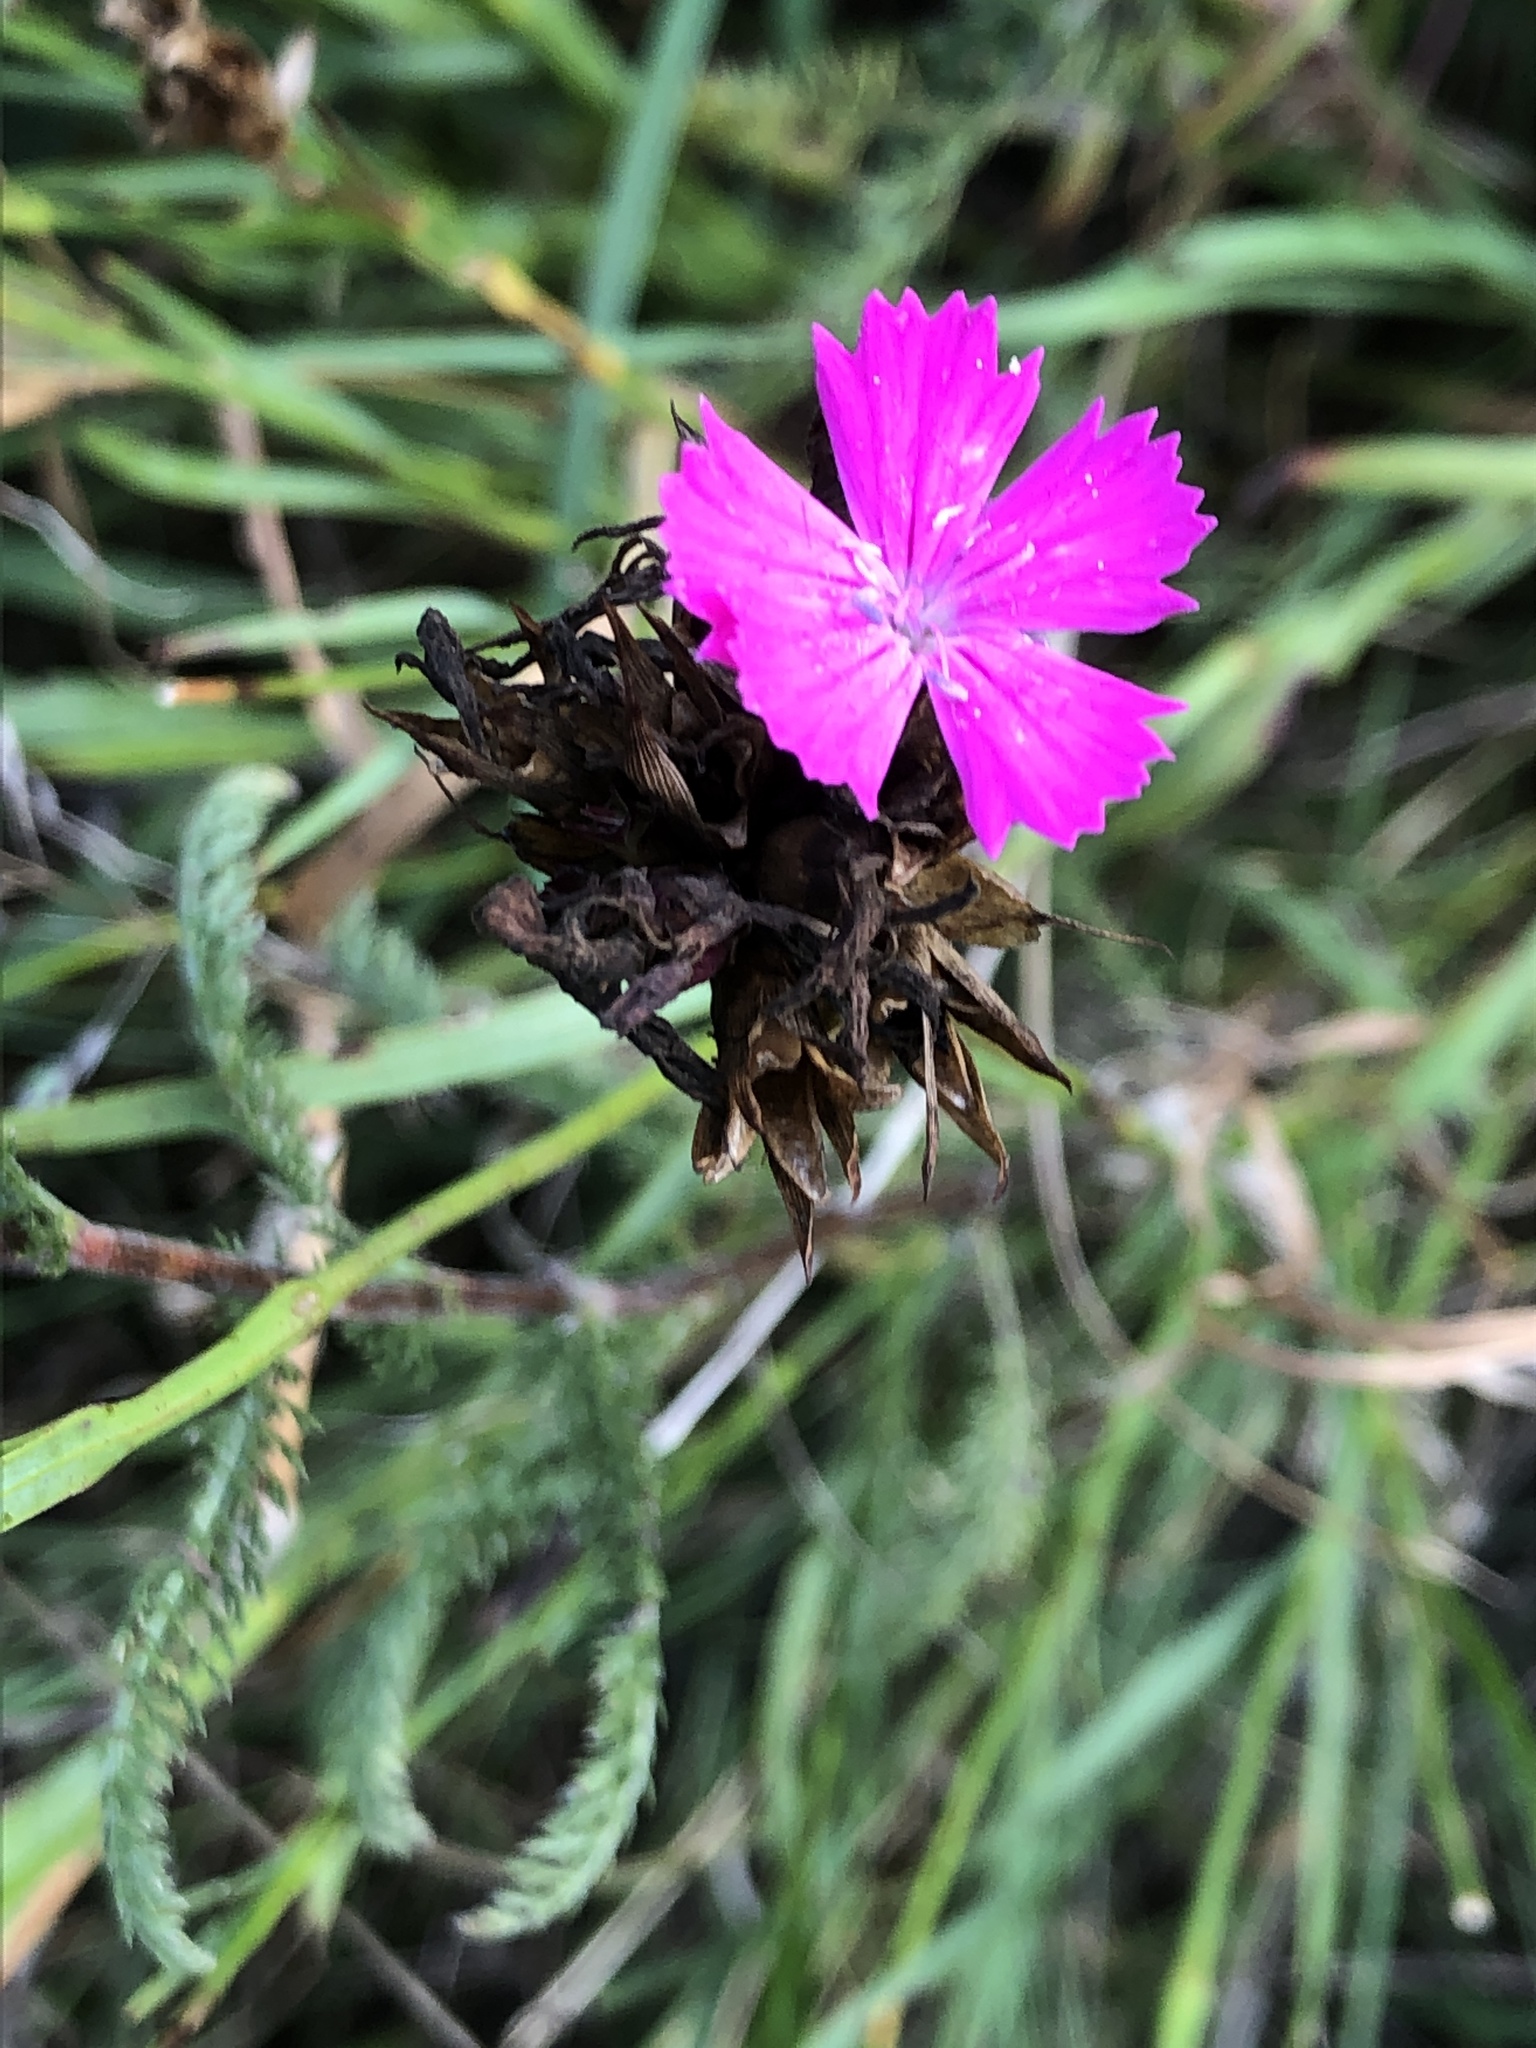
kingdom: Plantae
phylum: Tracheophyta
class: Magnoliopsida
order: Caryophyllales
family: Caryophyllaceae
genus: Dianthus
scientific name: Dianthus carthusianorum
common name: Carthusian pink
